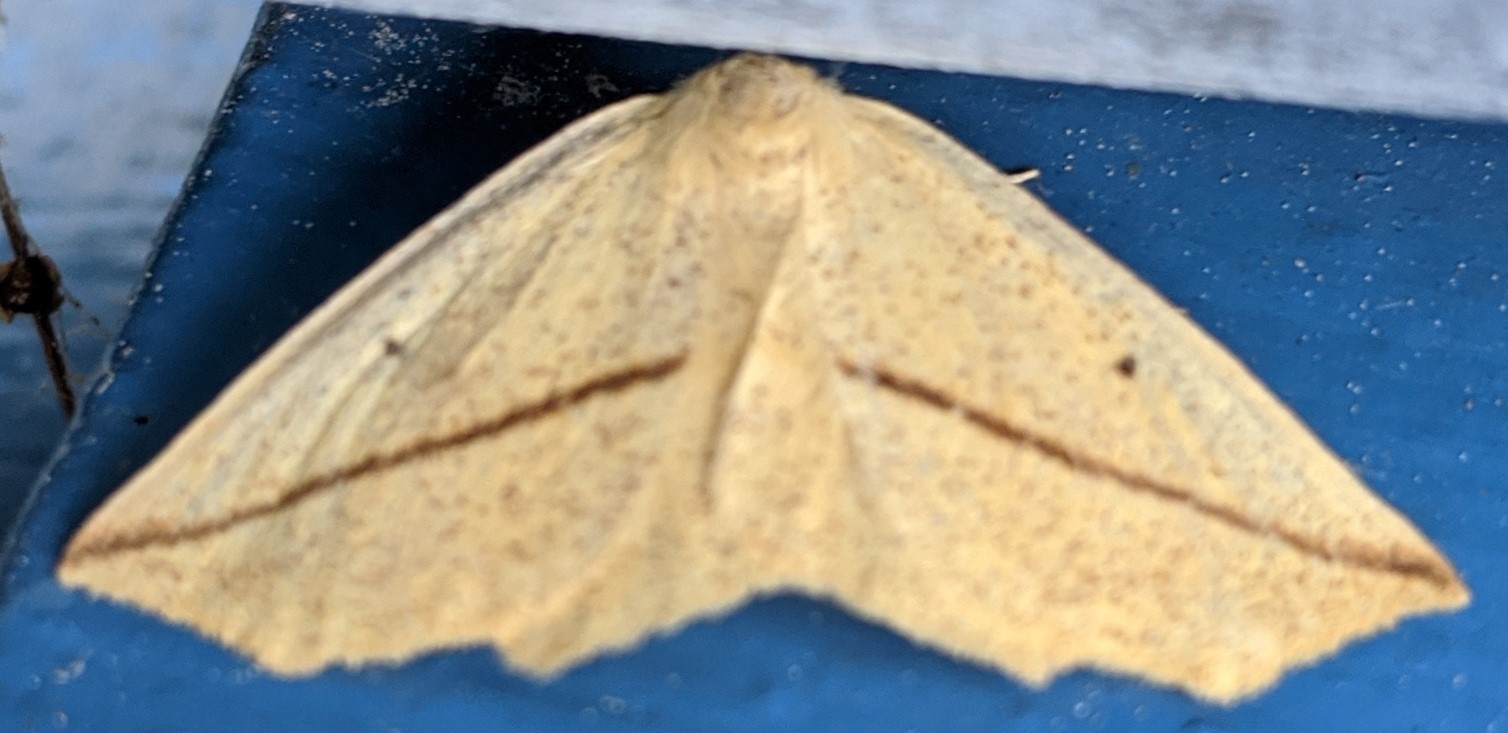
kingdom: Animalia
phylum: Arthropoda
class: Insecta
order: Lepidoptera
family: Geometridae
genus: Tetracis
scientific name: Tetracis crocallata
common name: Yellow slant-line
